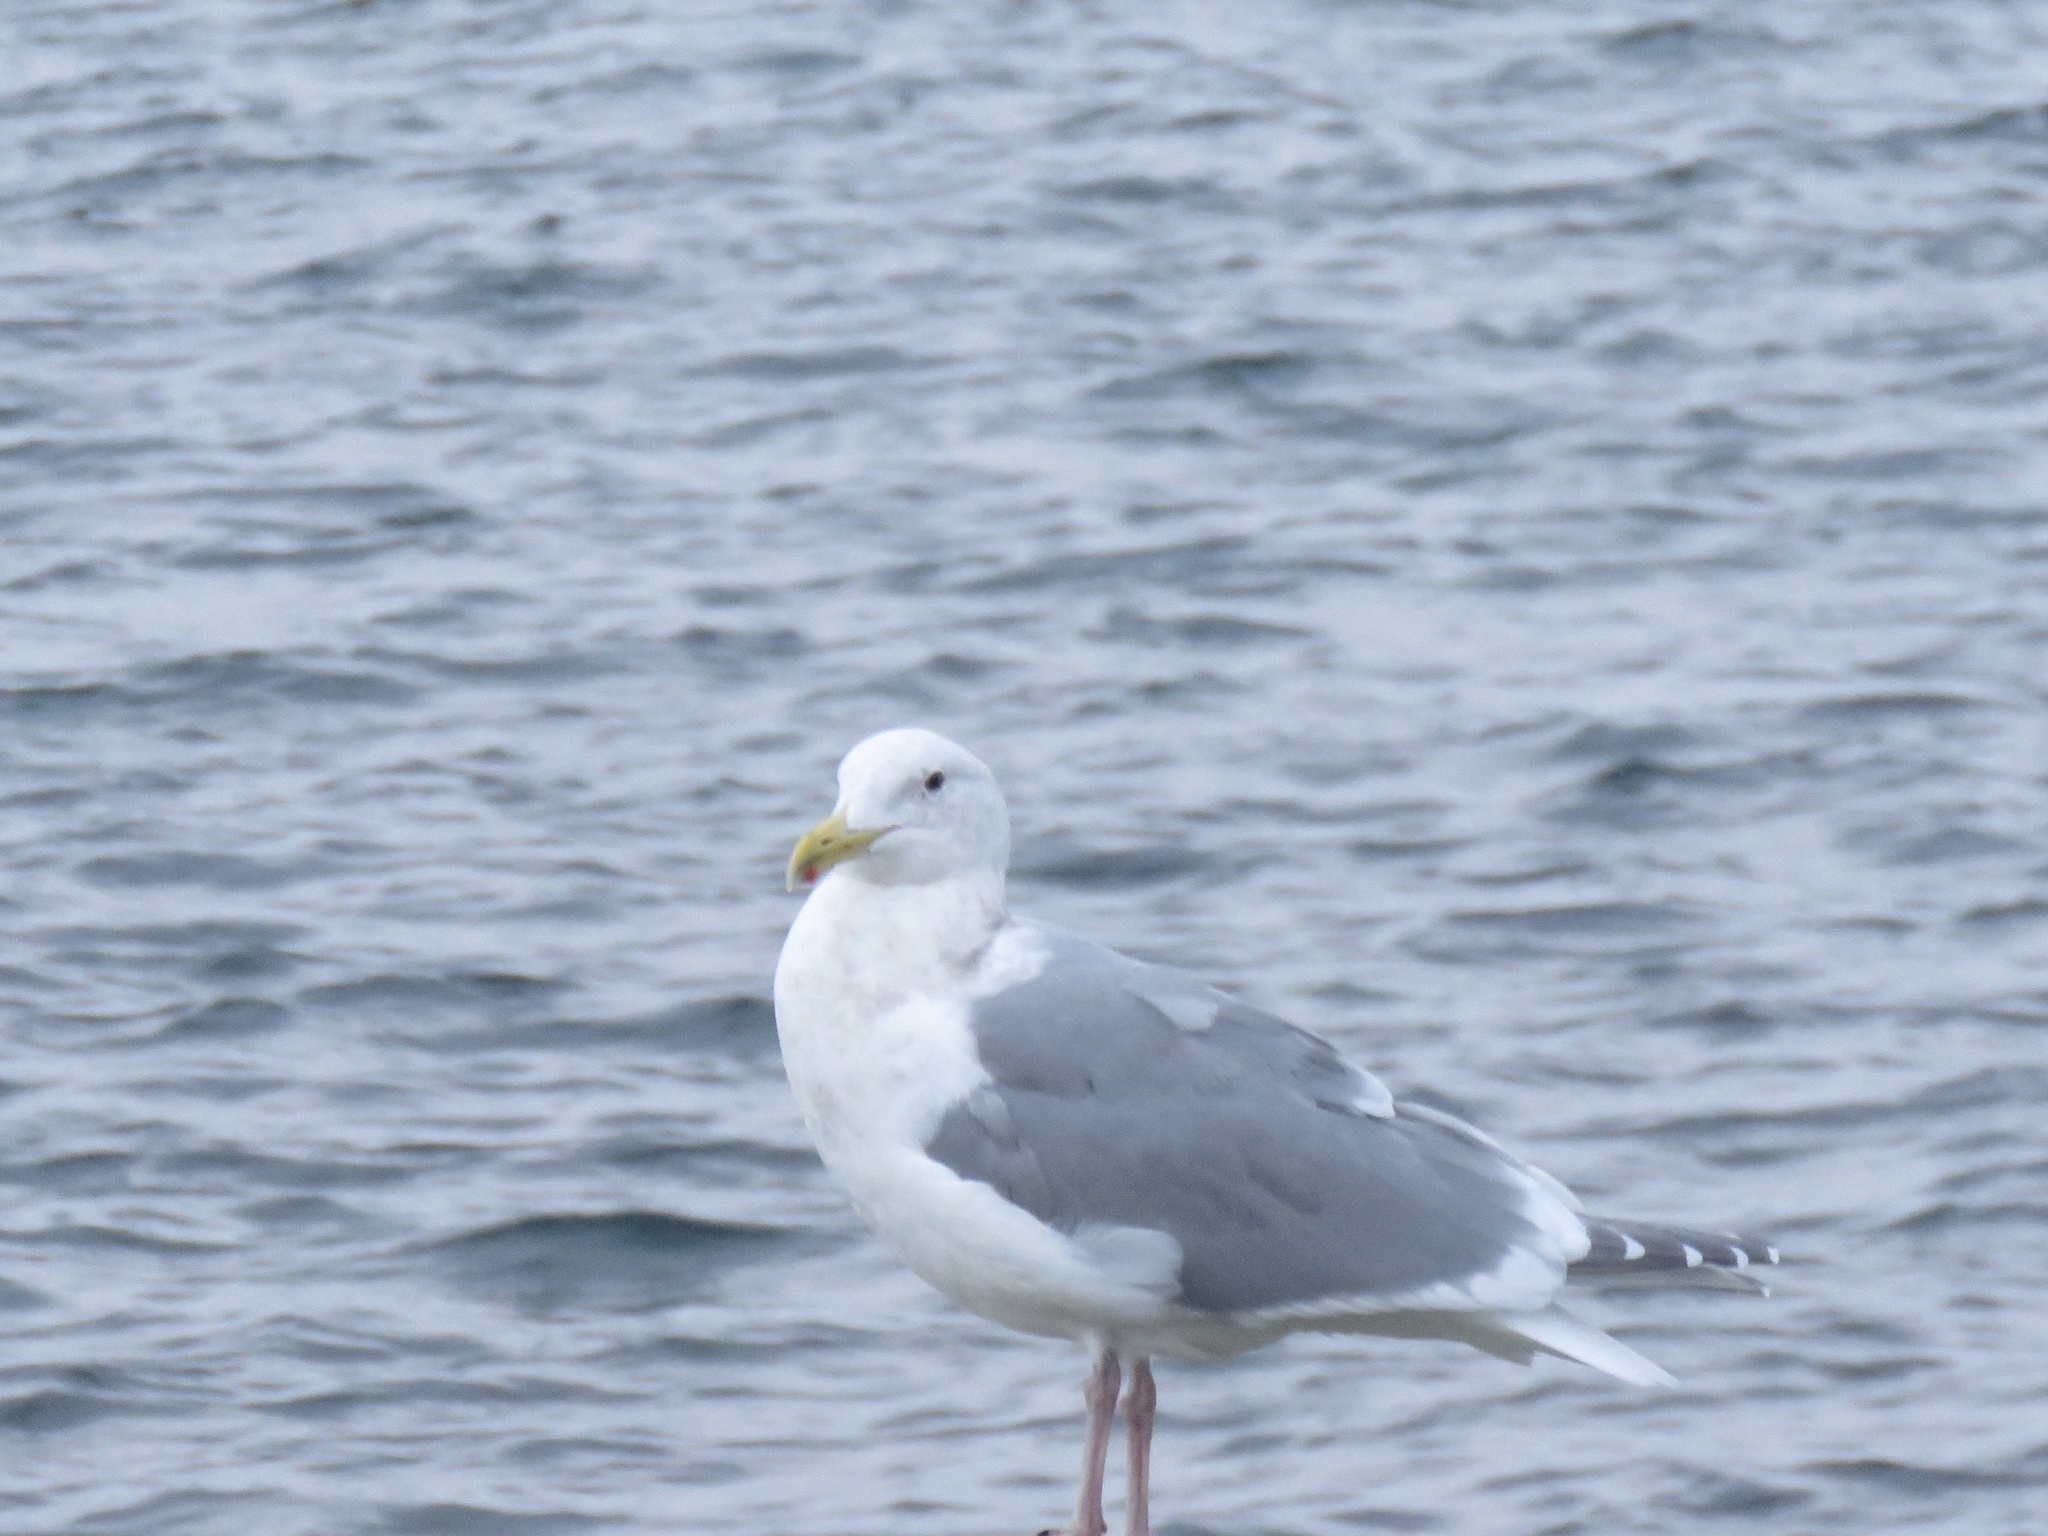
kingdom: Animalia
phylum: Chordata
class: Aves
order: Charadriiformes
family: Laridae
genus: Larus
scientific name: Larus
